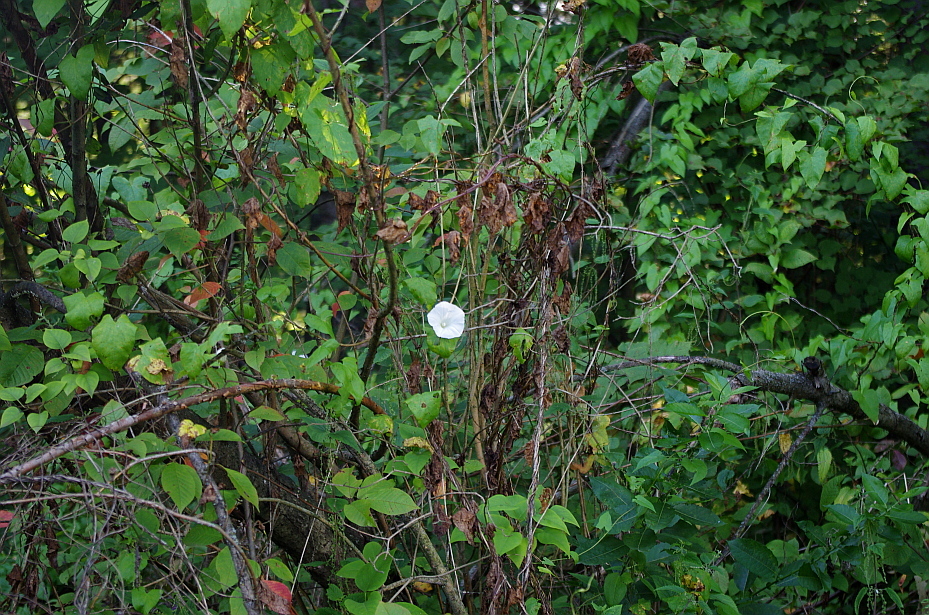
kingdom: Plantae
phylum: Tracheophyta
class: Magnoliopsida
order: Solanales
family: Convolvulaceae
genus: Calystegia
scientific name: Calystegia sepium
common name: Hedge bindweed
